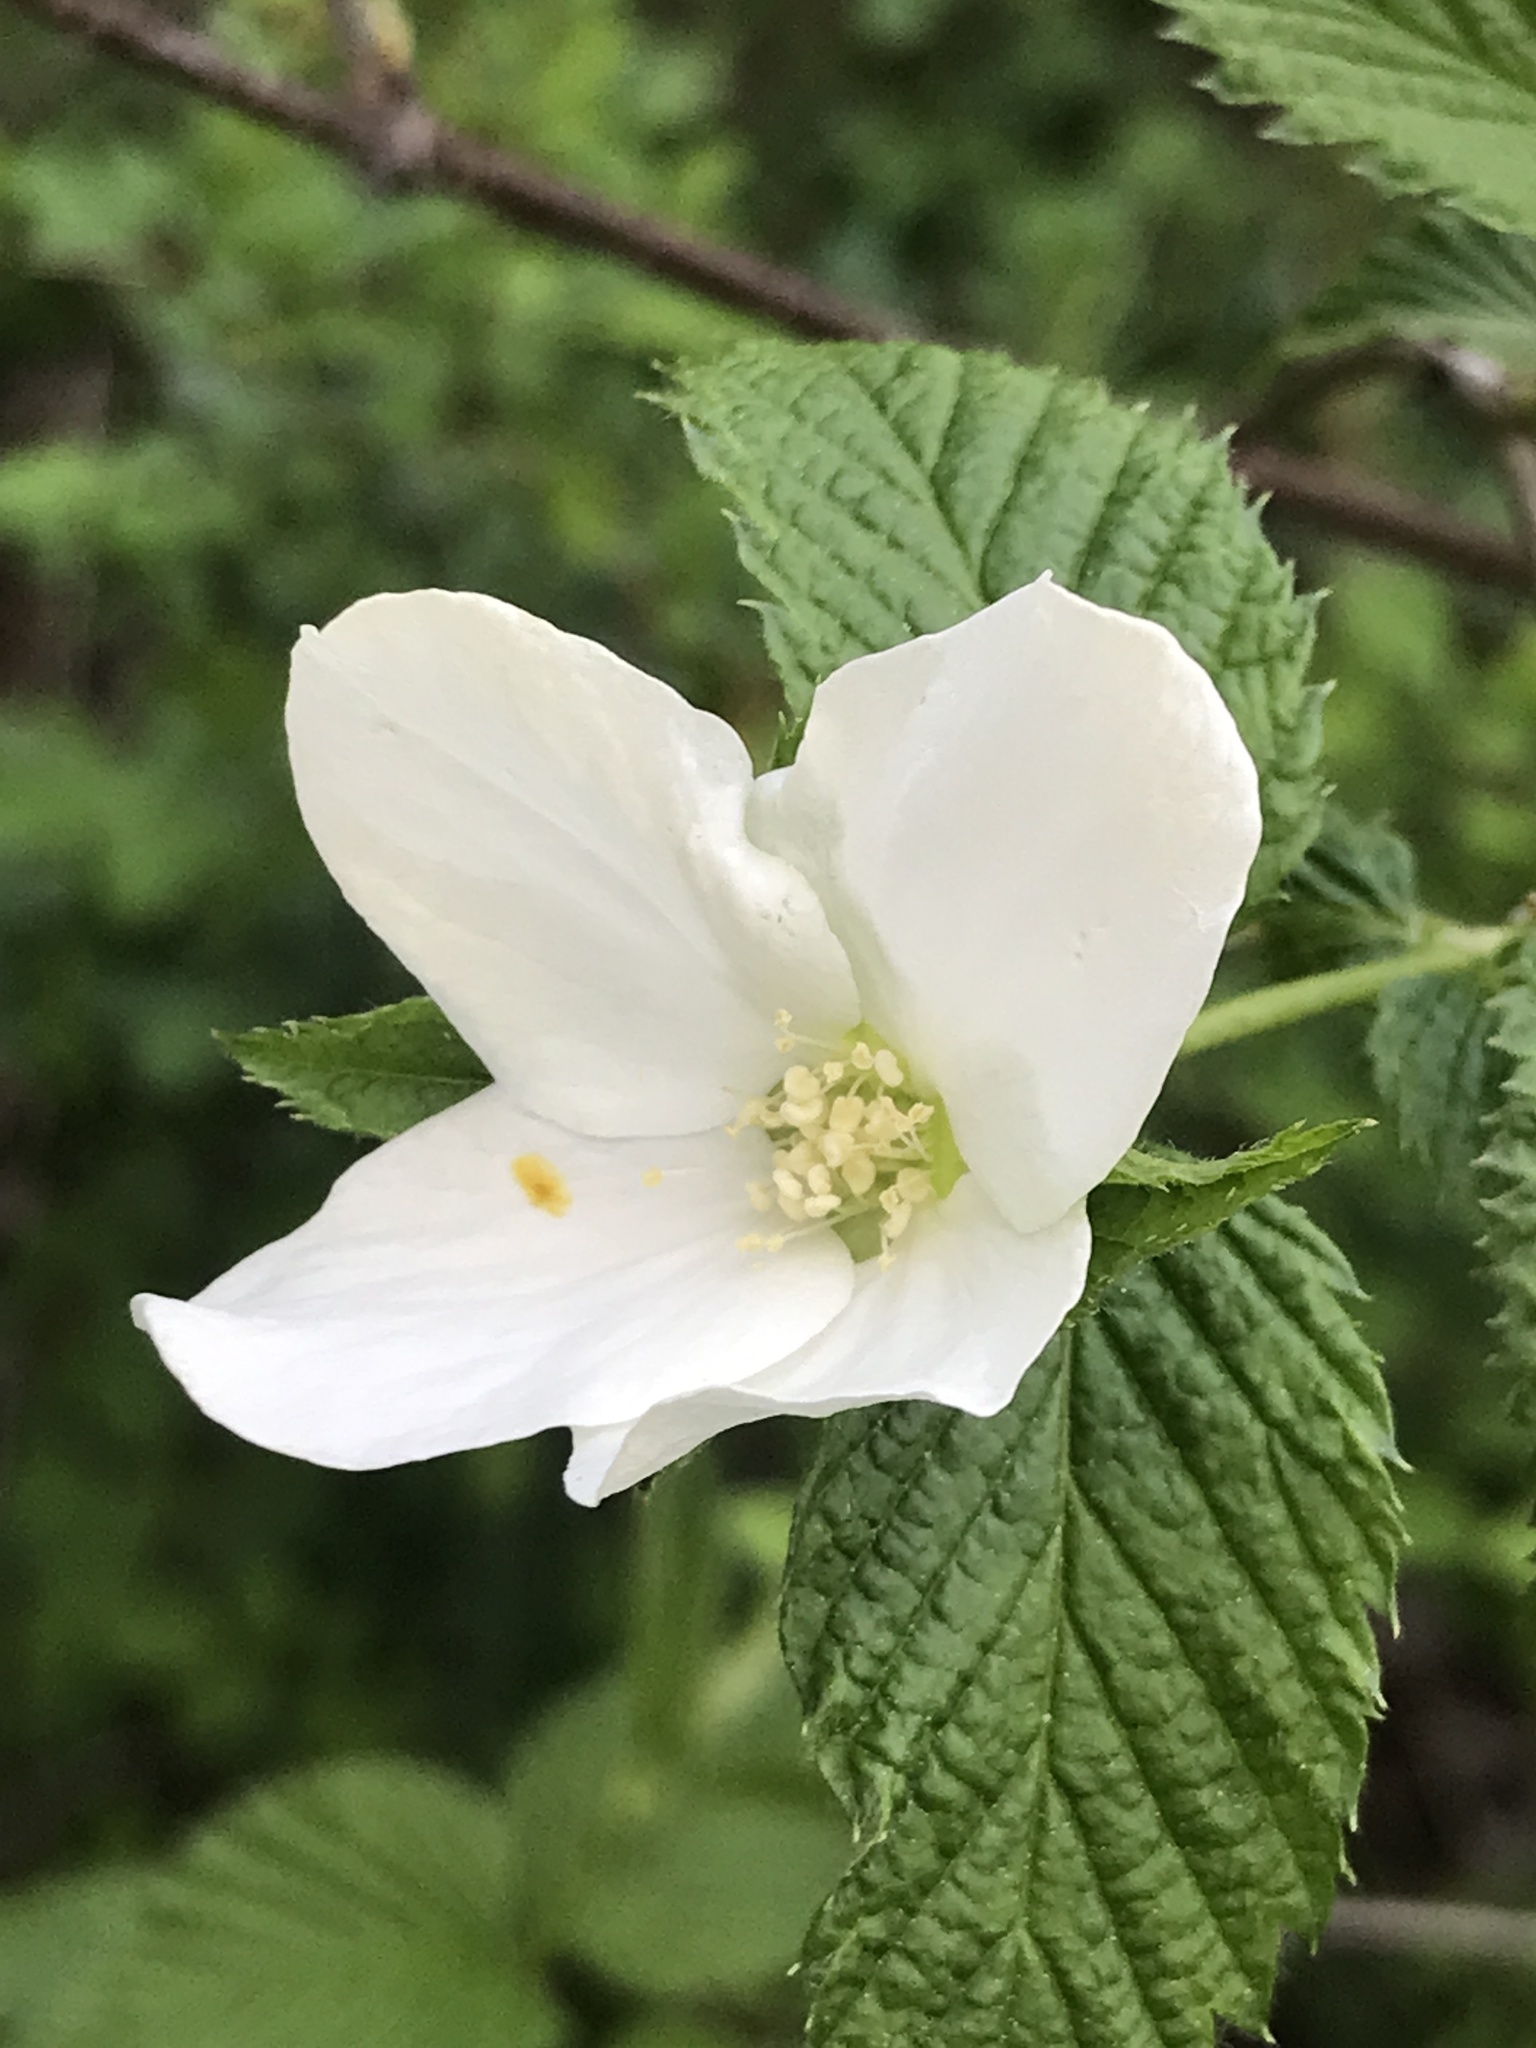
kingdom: Plantae
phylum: Tracheophyta
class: Magnoliopsida
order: Rosales
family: Rosaceae
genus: Rhodotypos
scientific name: Rhodotypos scandens
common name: Jetbead
